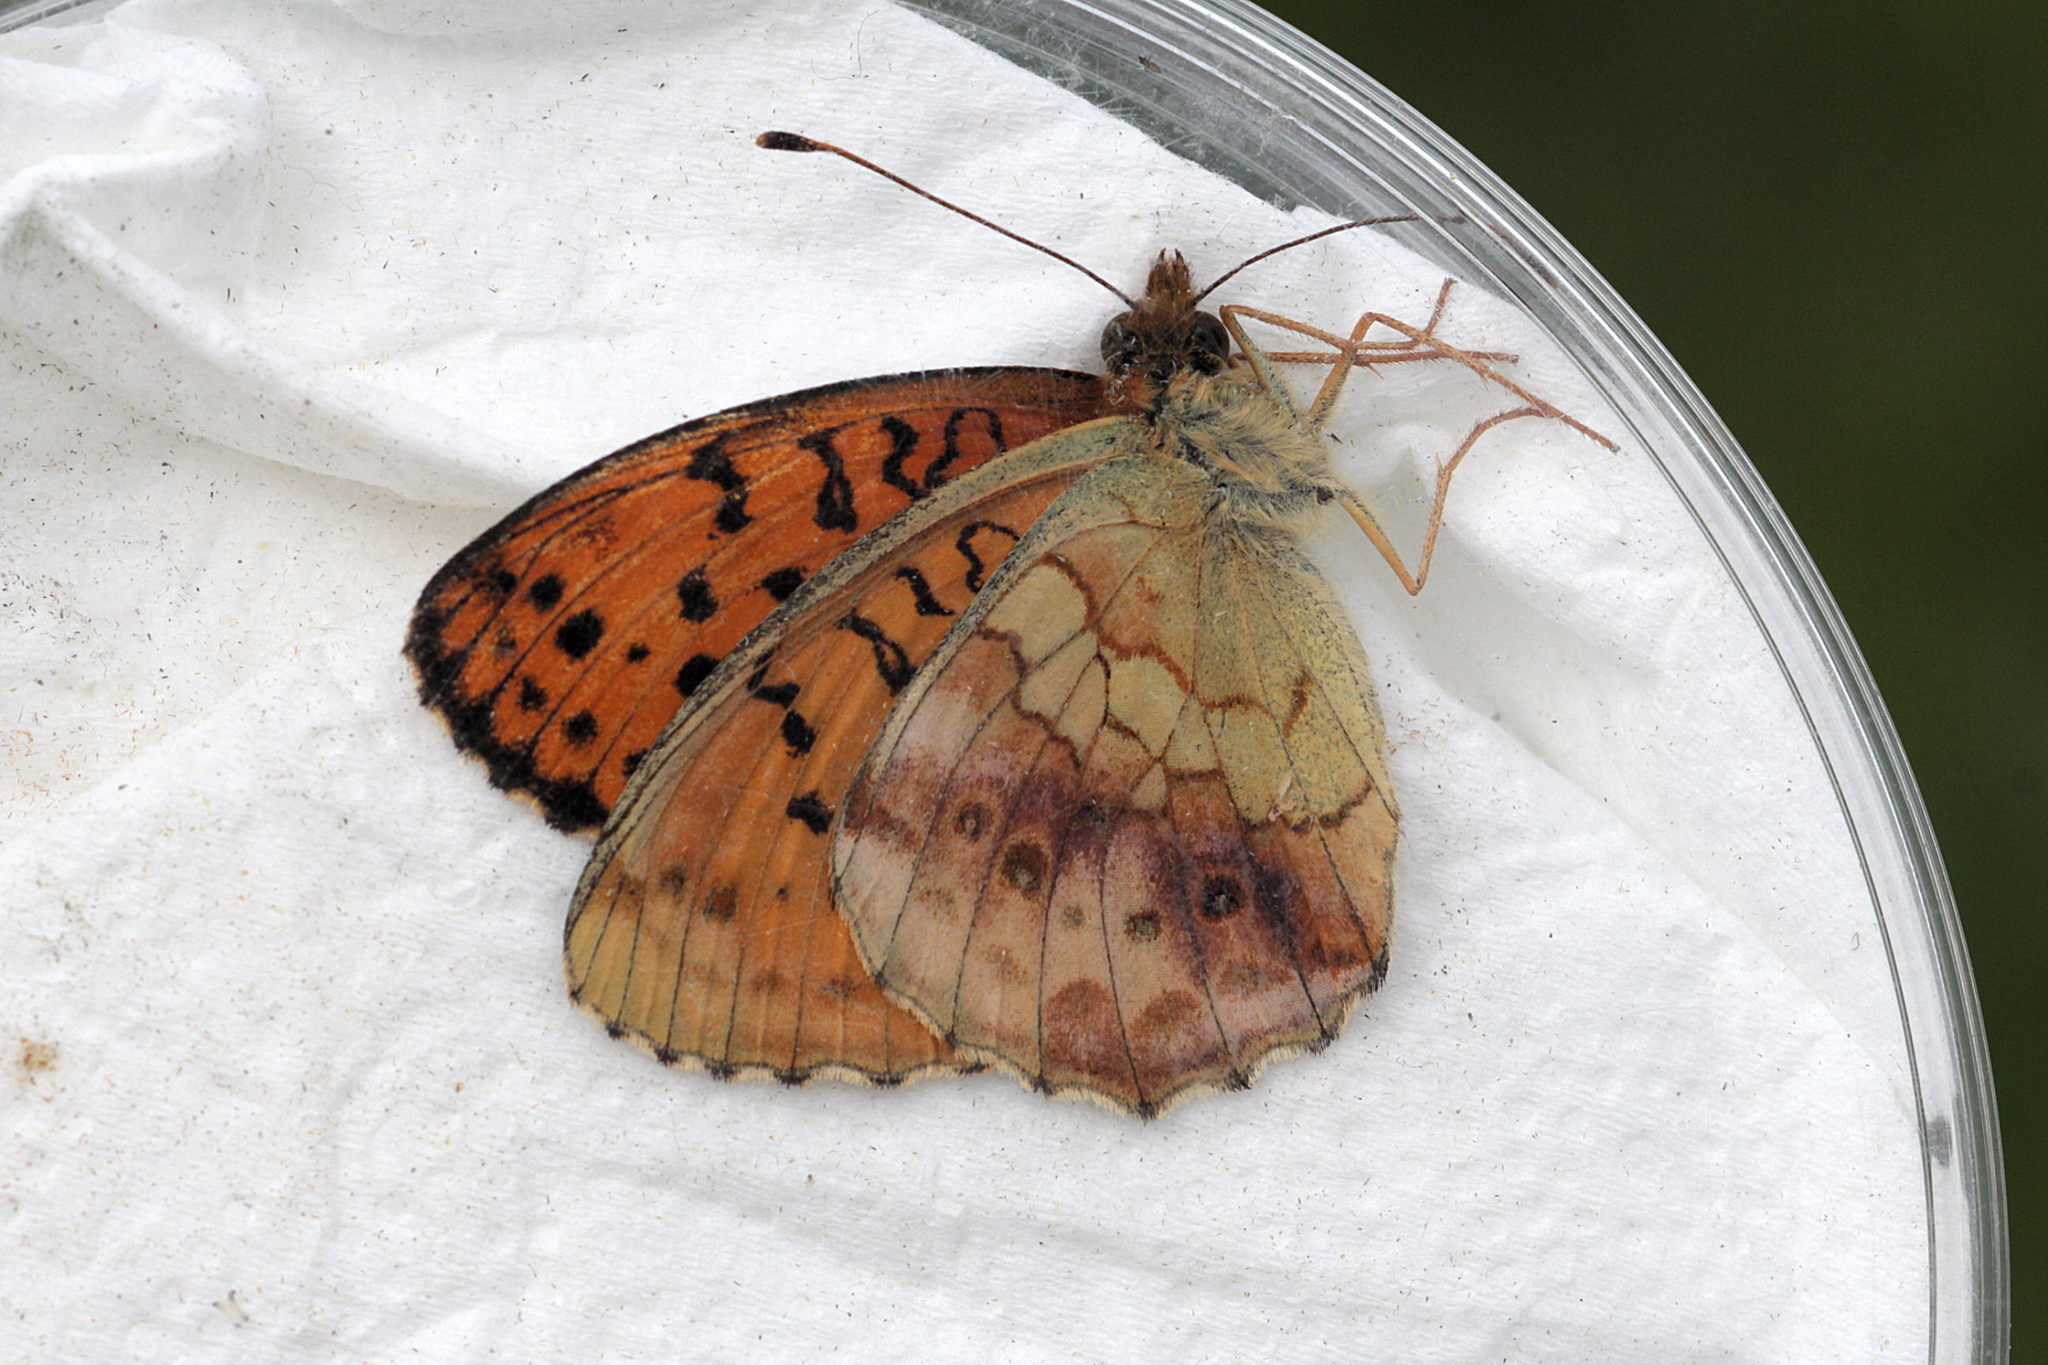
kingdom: Animalia
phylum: Arthropoda
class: Insecta
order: Lepidoptera
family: Nymphalidae
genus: Brenthis
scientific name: Brenthis daphne
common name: Marbled fritillary
